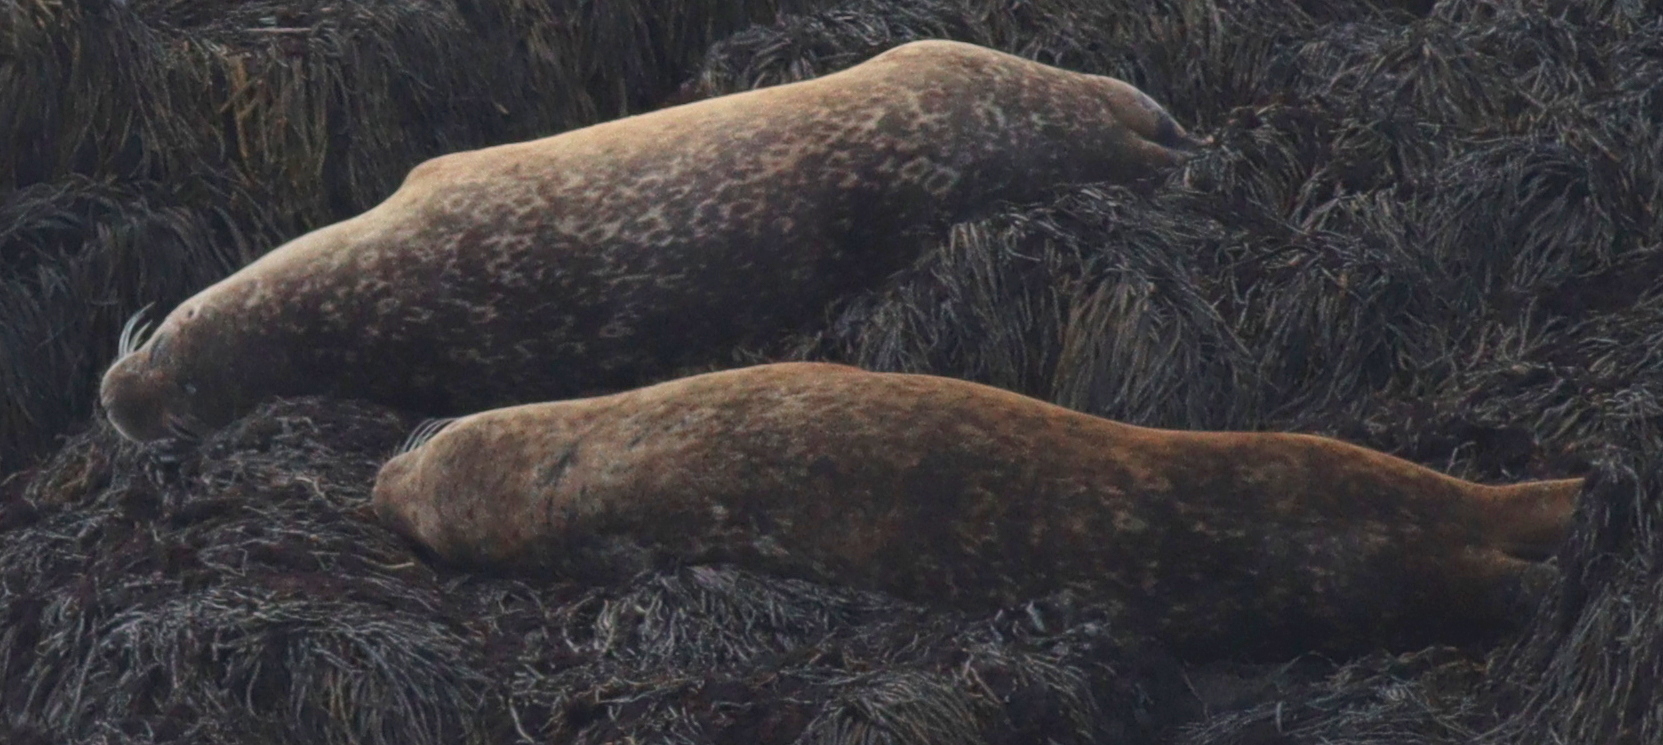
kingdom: Animalia
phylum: Chordata
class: Mammalia
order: Carnivora
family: Phocidae
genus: Phoca
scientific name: Phoca vitulina
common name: Harbor seal
